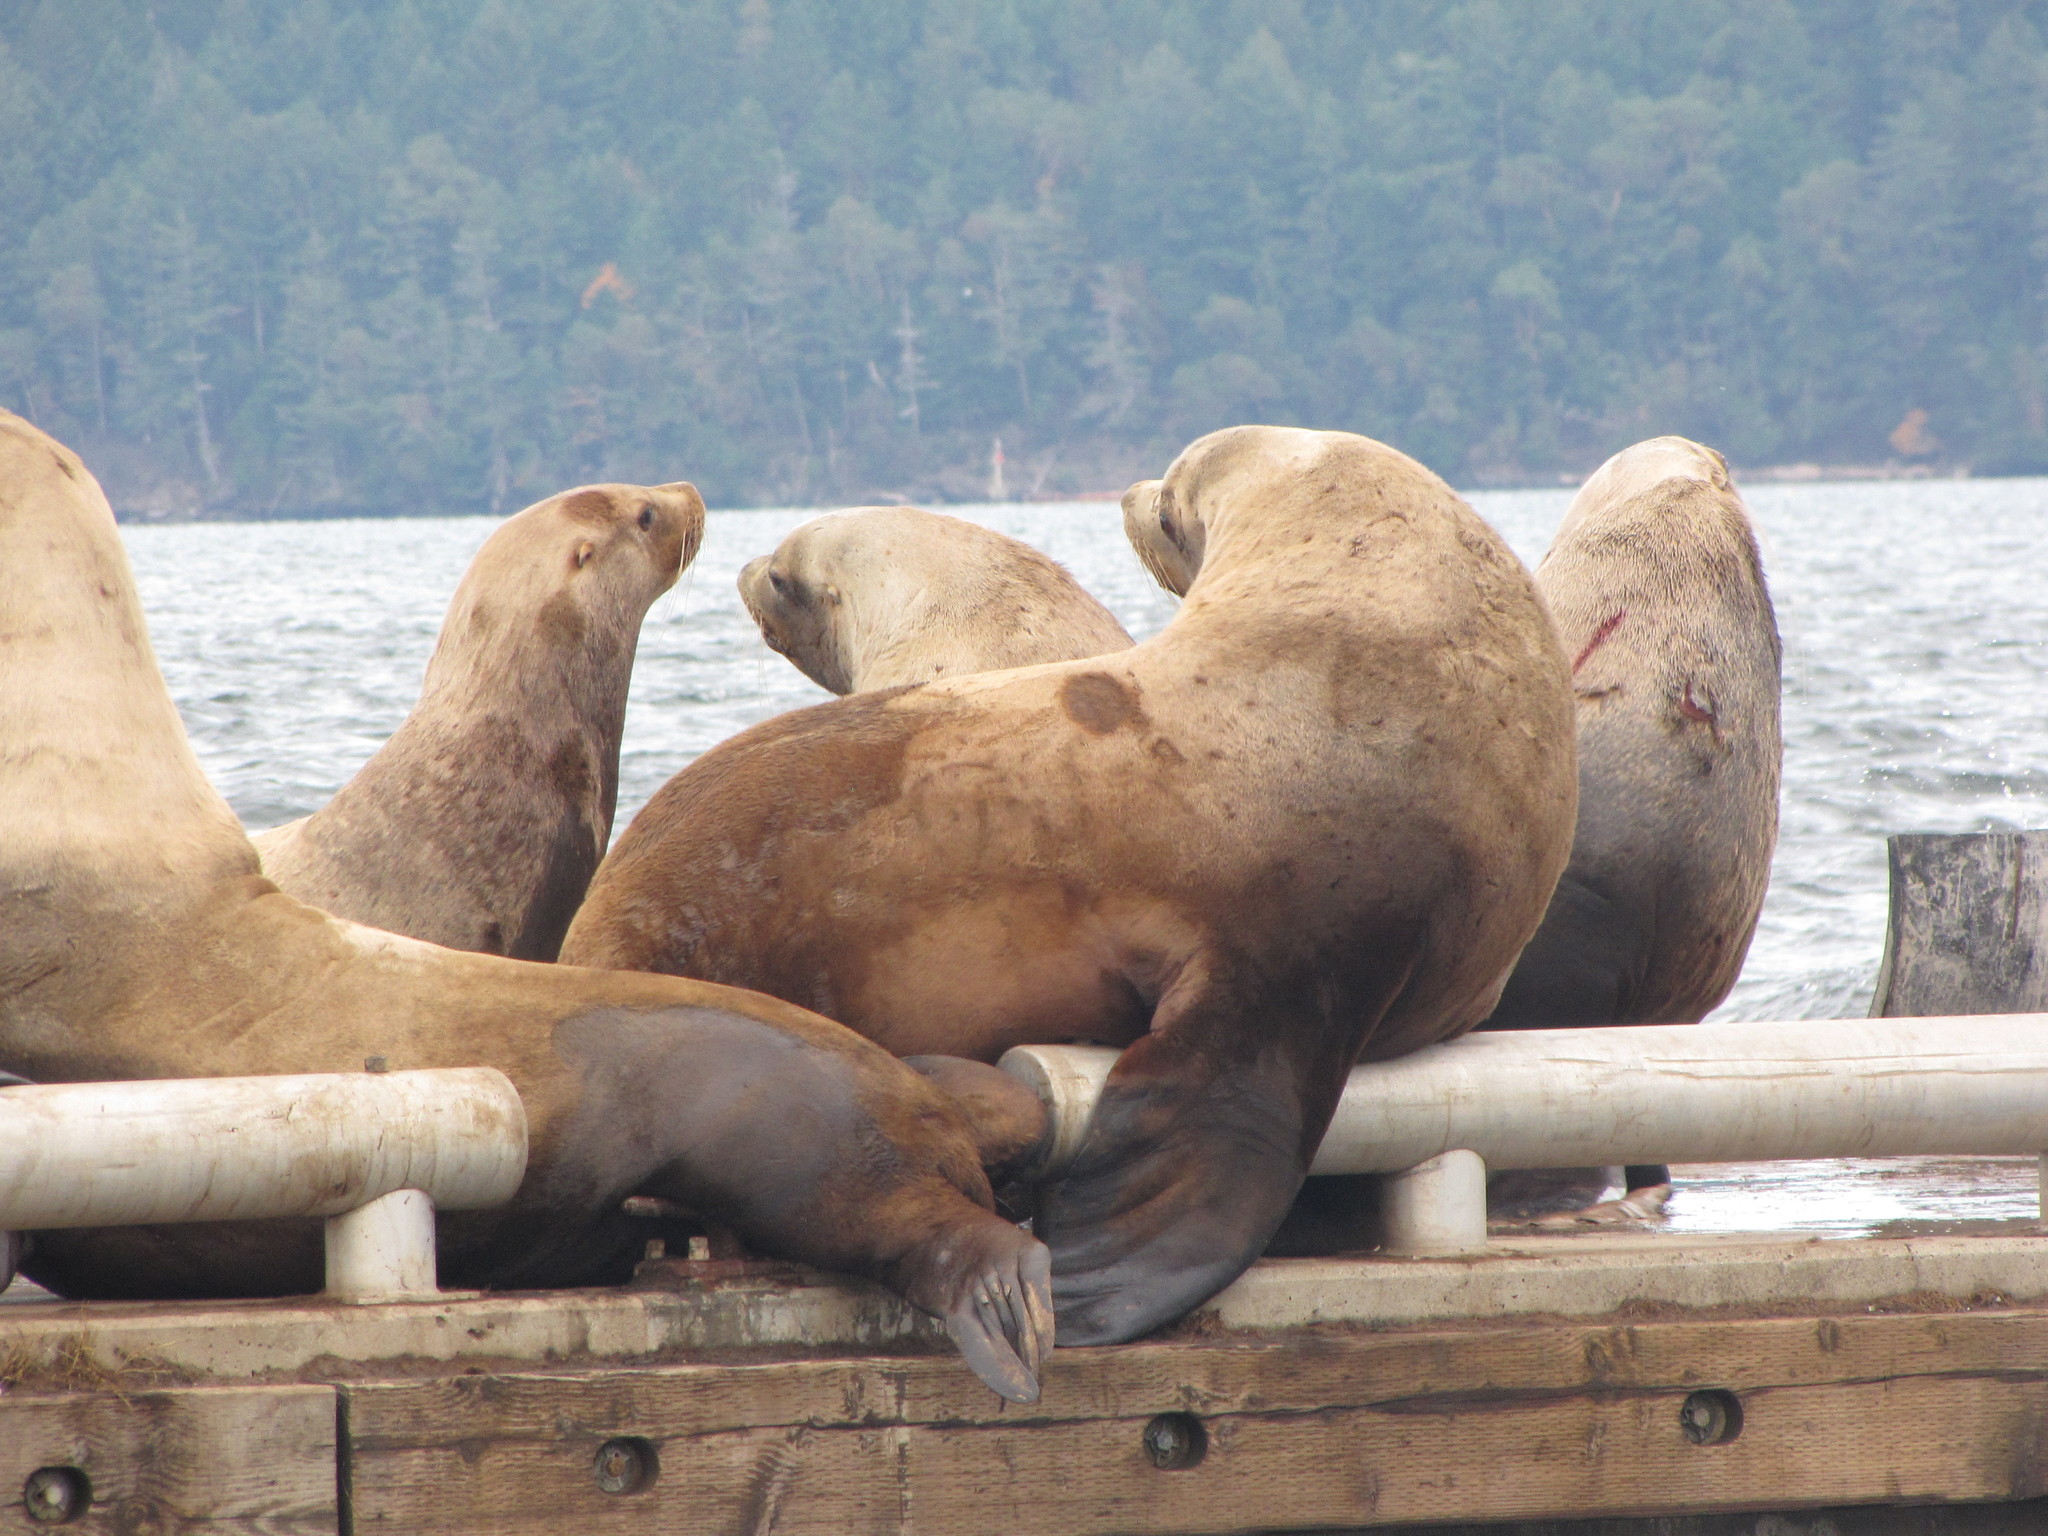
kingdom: Animalia
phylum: Chordata
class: Mammalia
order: Carnivora
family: Otariidae
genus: Eumetopias
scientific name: Eumetopias jubatus
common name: Steller sea lion
